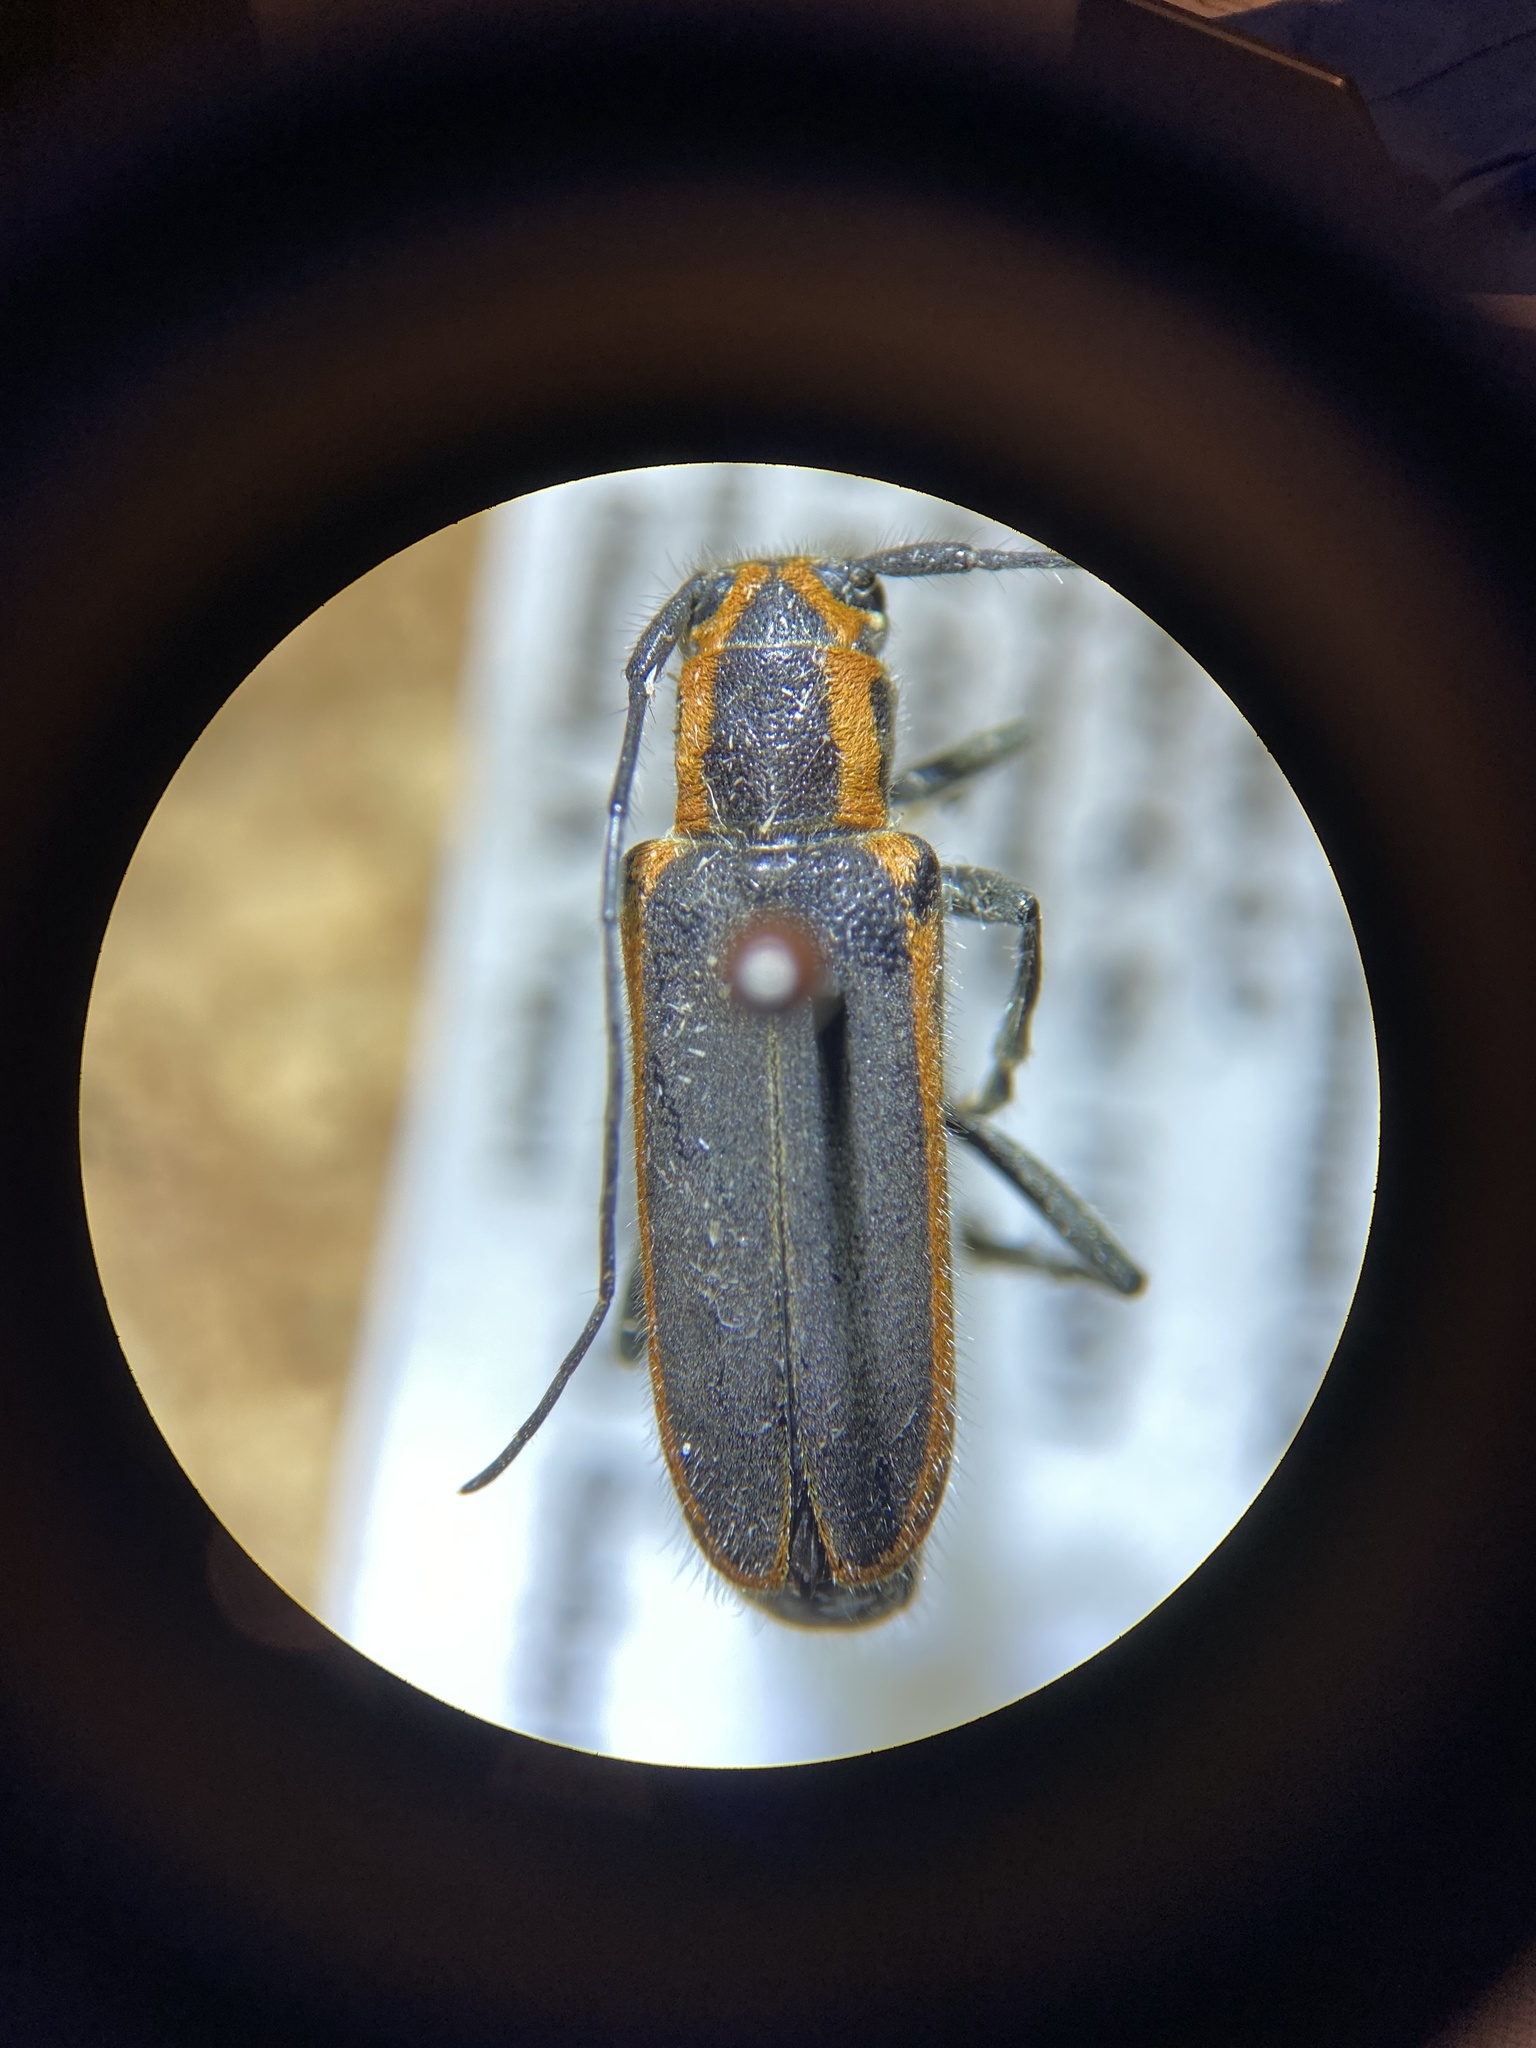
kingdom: Animalia
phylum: Arthropoda
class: Insecta
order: Coleoptera
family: Cerambycidae
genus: Saperda
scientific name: Saperda lateralis
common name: Red-edged saperda
